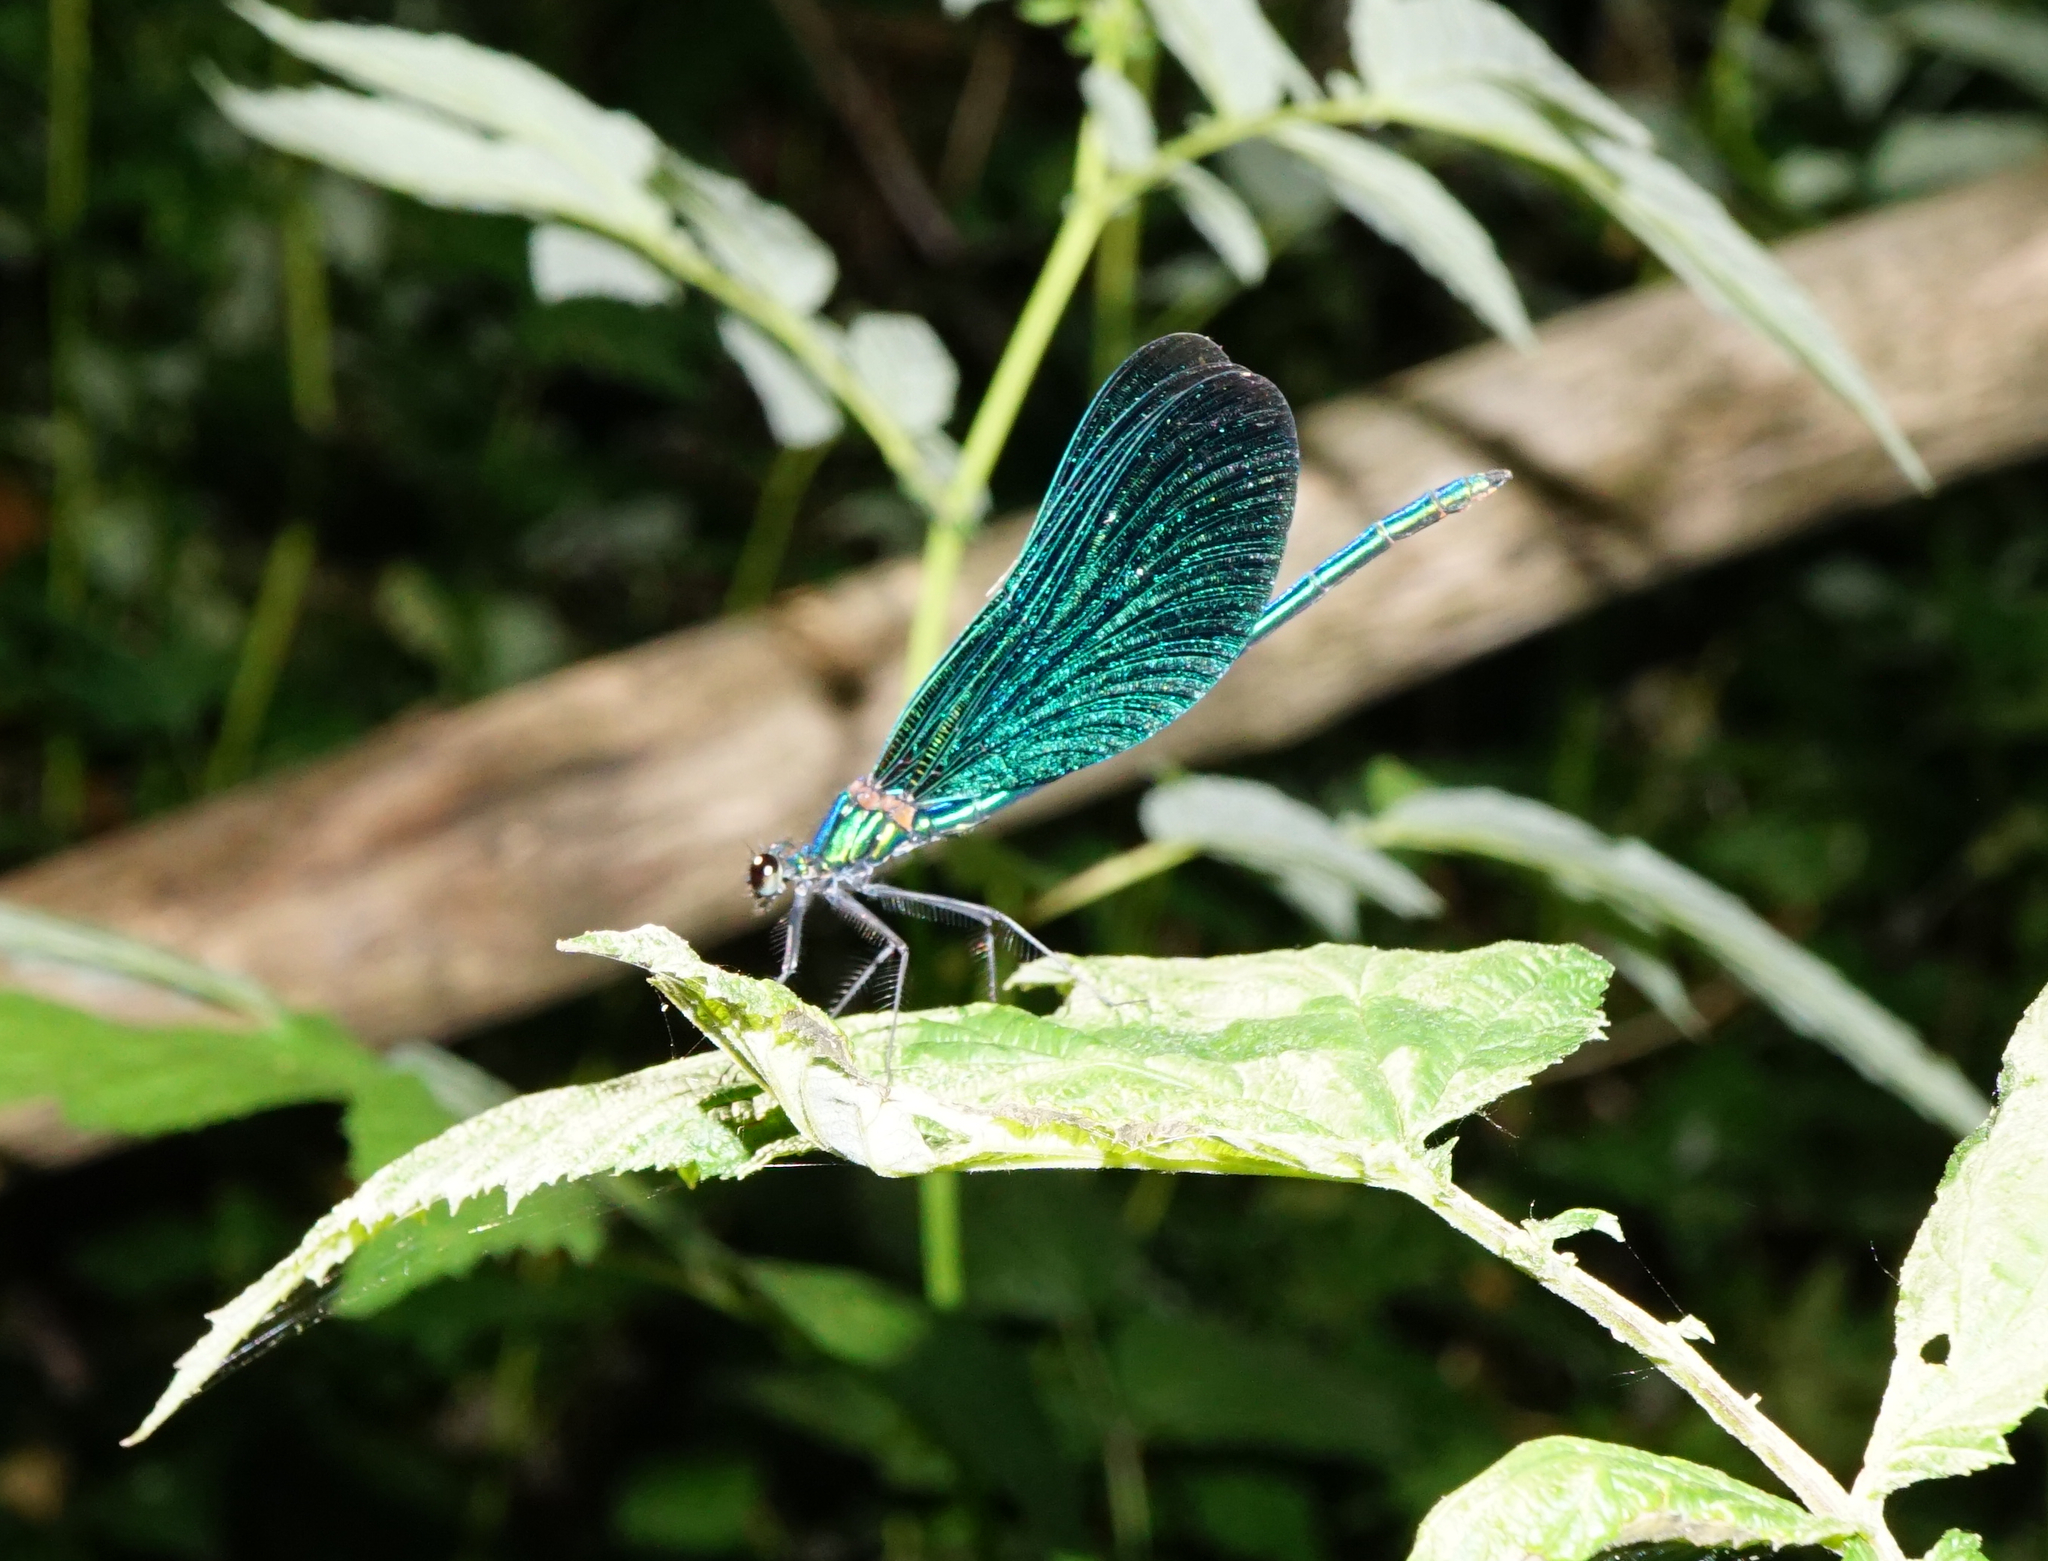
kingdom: Animalia
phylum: Arthropoda
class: Insecta
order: Odonata
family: Calopterygidae
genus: Calopteryx
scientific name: Calopteryx virgo
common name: Beautiful demoiselle
